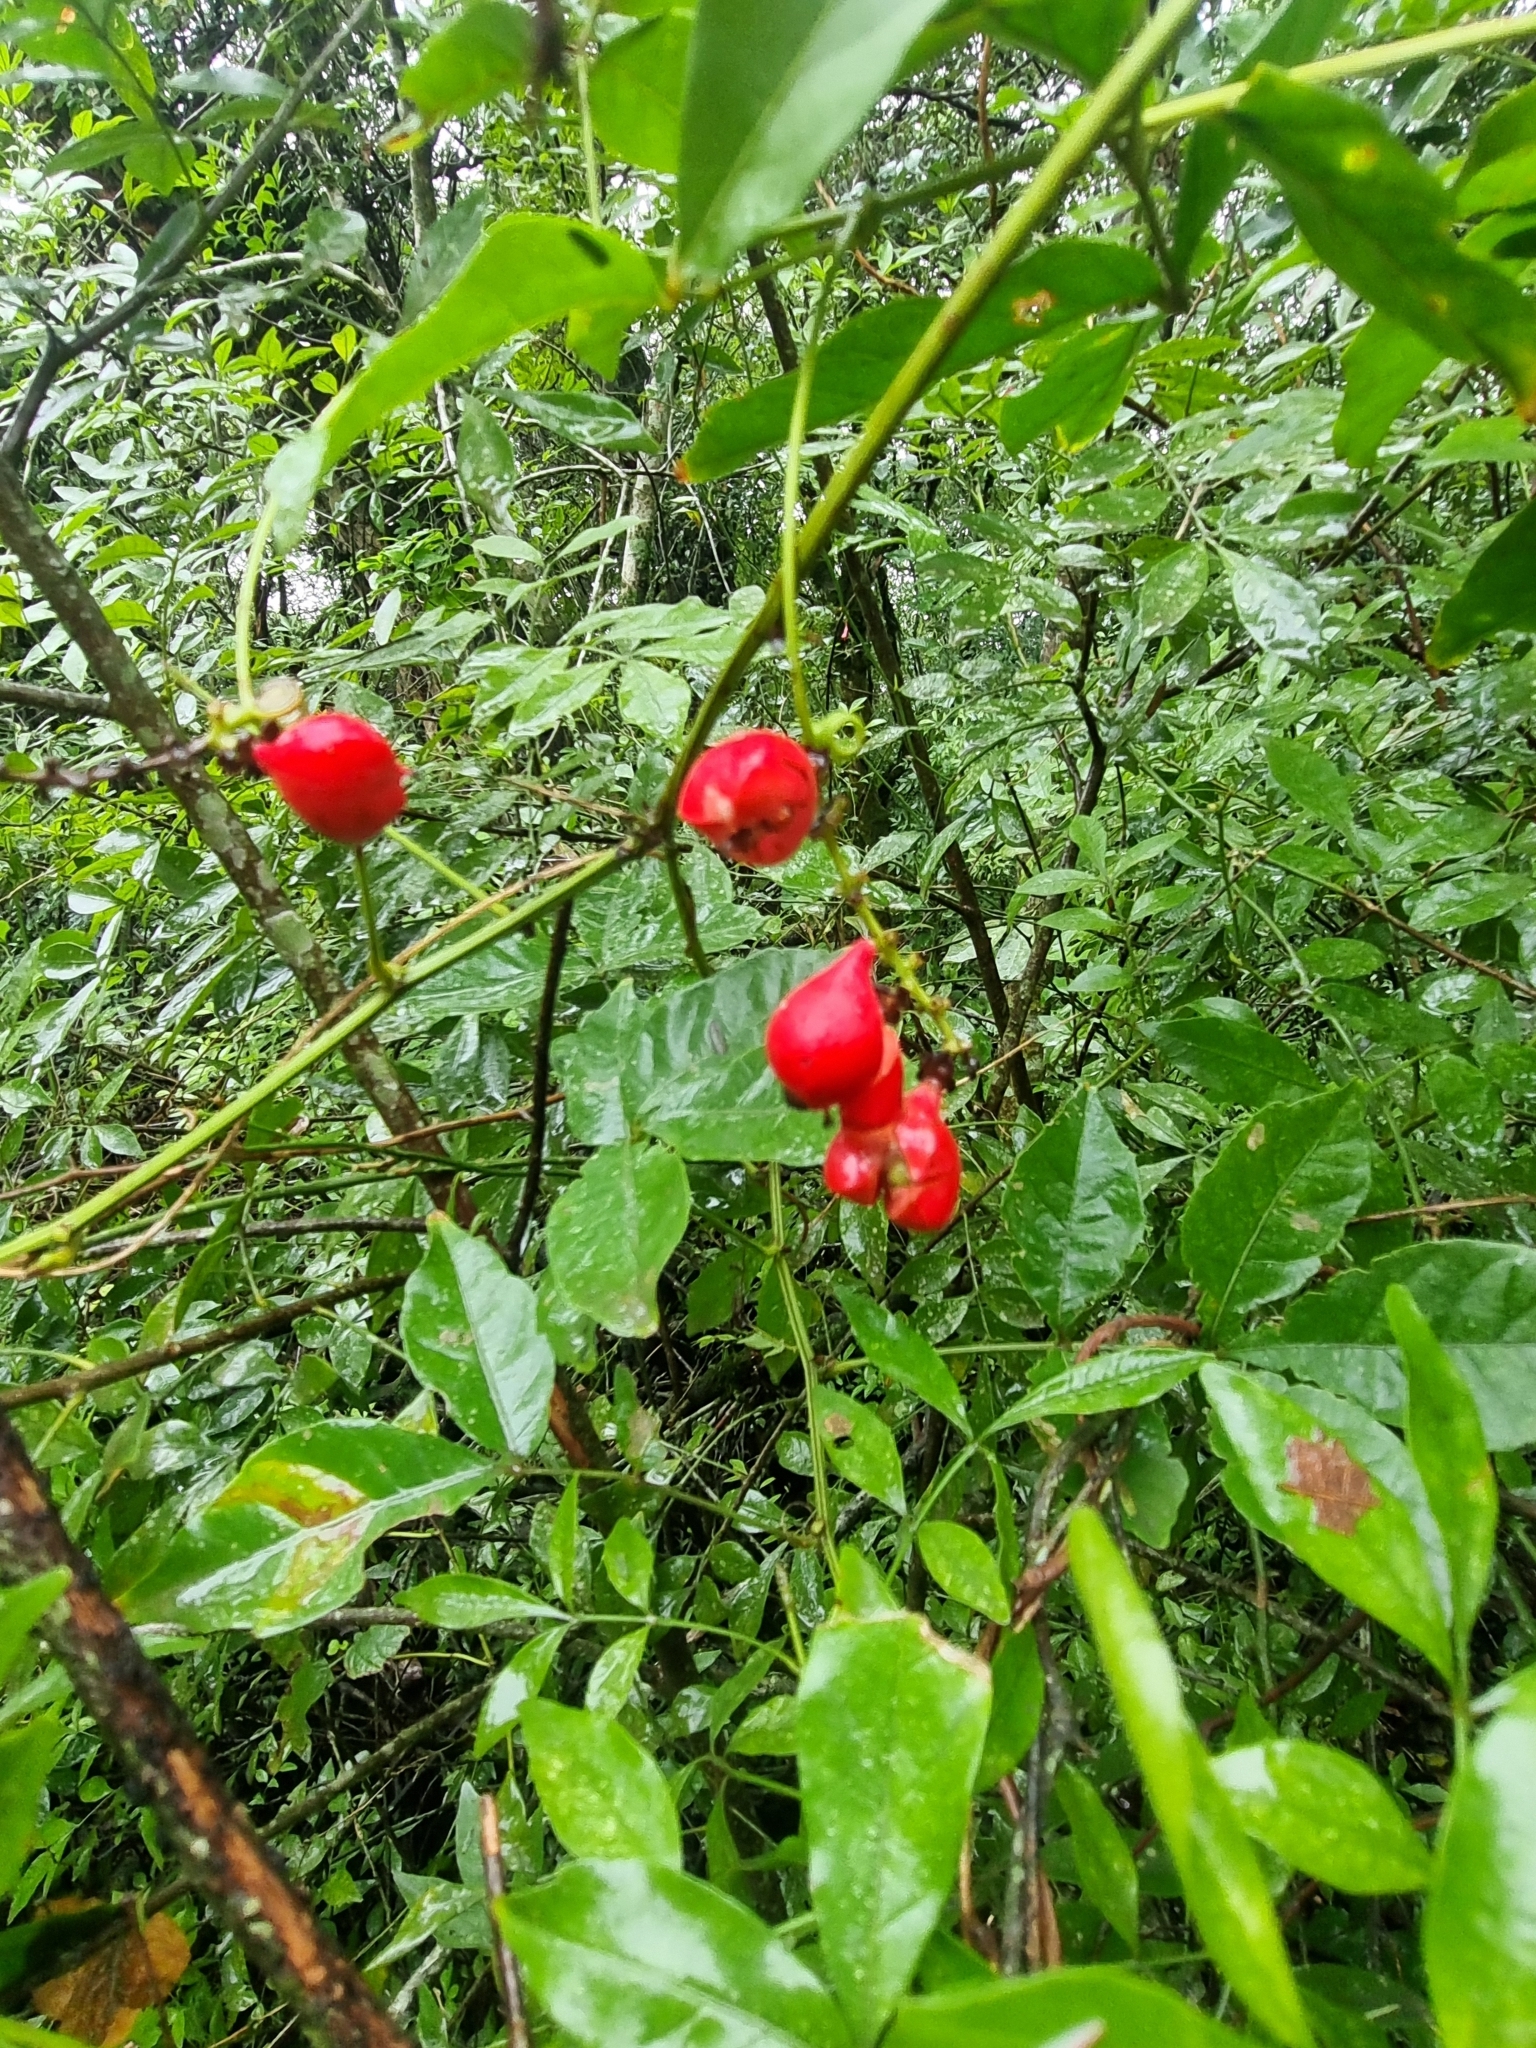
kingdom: Plantae
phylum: Tracheophyta
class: Magnoliopsida
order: Sapindales
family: Sapindaceae
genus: Paullinia
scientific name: Paullinia elegans
